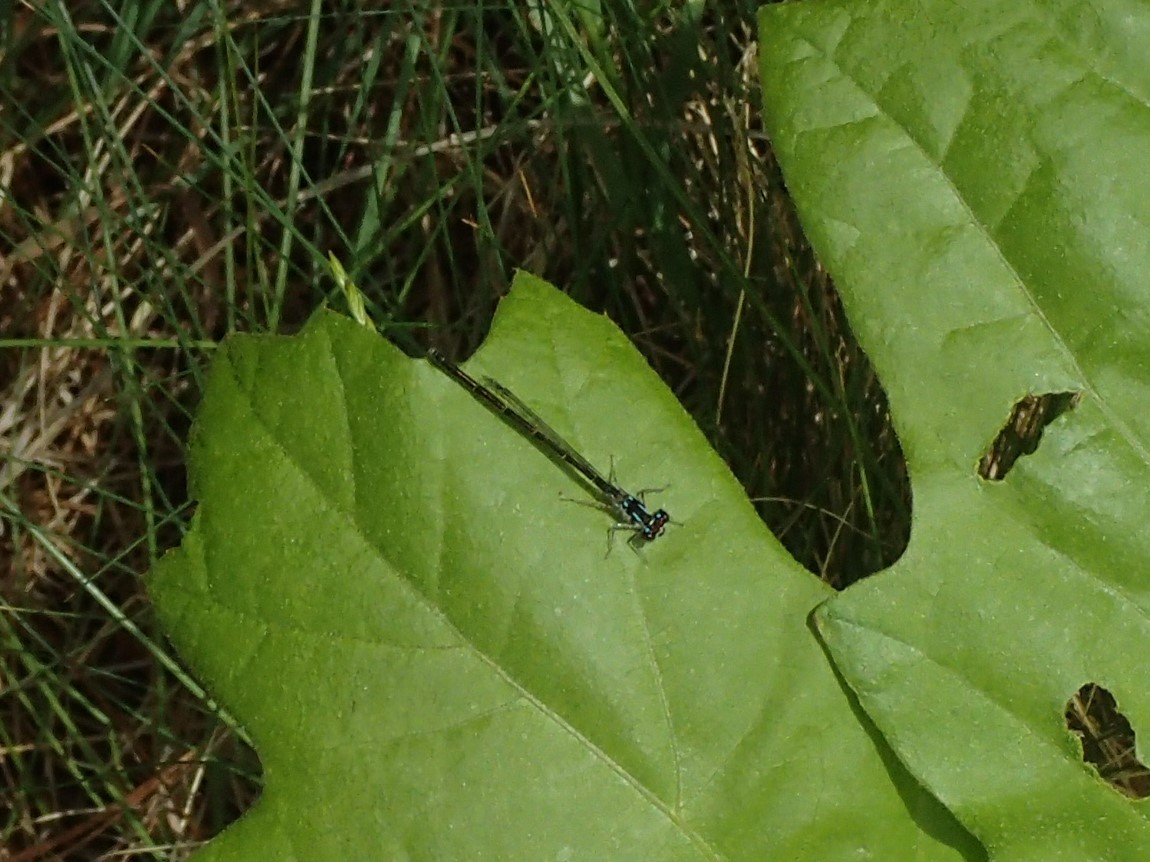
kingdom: Animalia
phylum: Arthropoda
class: Insecta
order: Odonata
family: Coenagrionidae
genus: Ischnura
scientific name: Ischnura posita
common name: Fragile forktail
